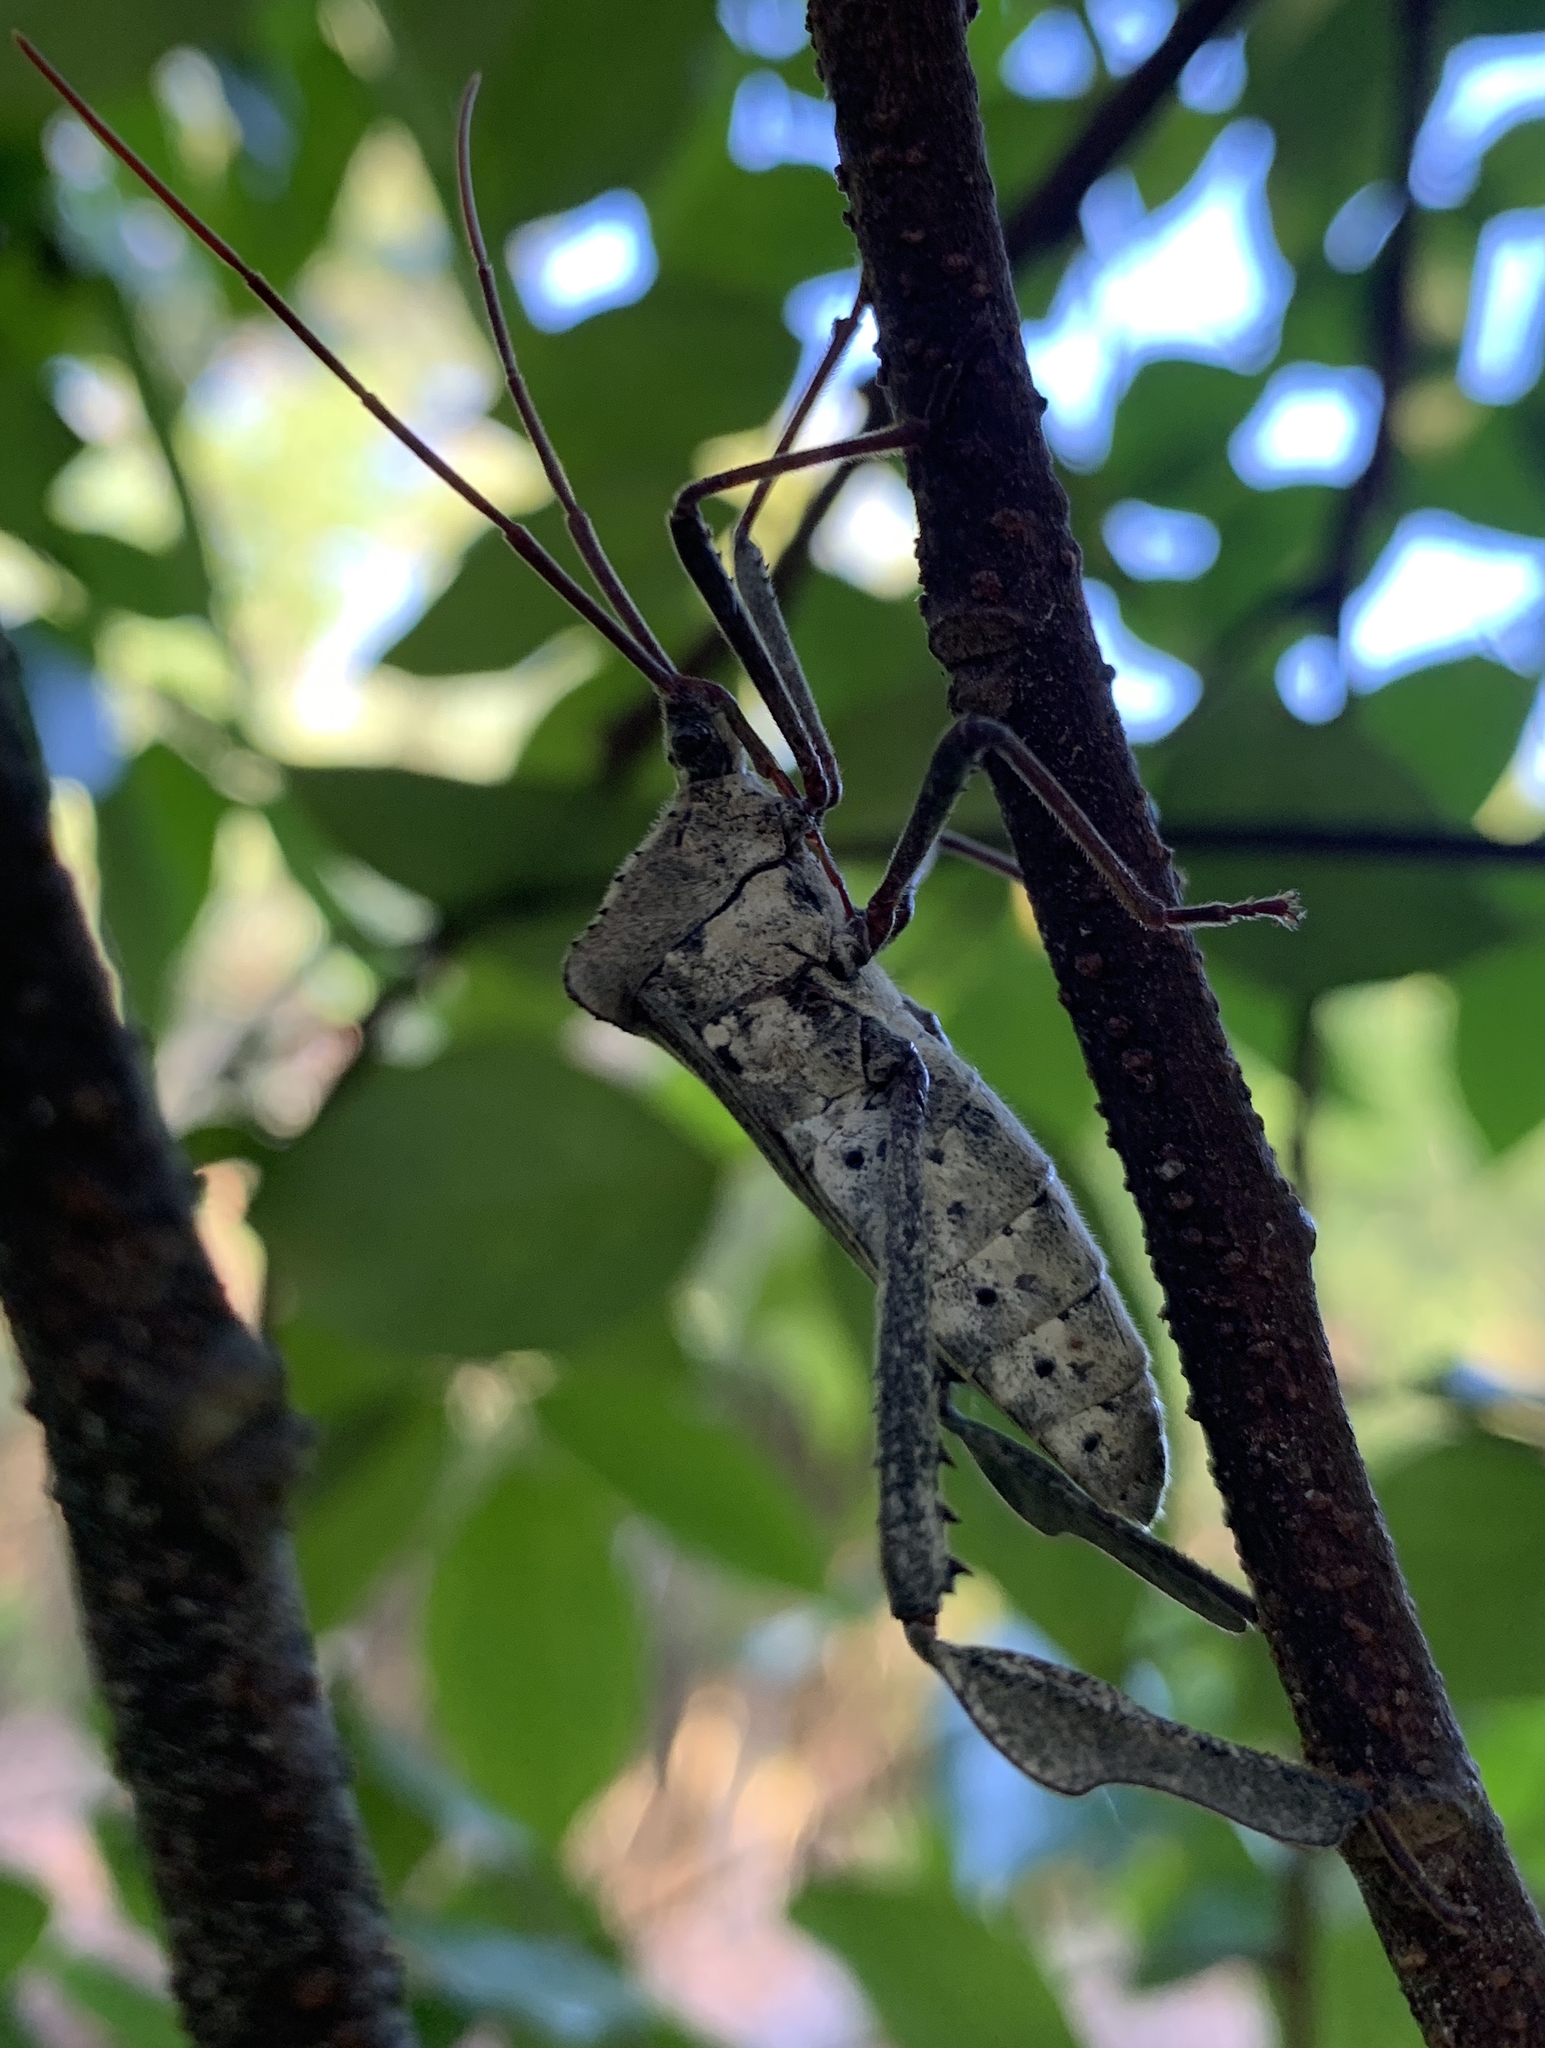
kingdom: Animalia
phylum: Arthropoda
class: Insecta
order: Hemiptera
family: Coreidae
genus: Acanthocephala
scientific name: Acanthocephala declivis
